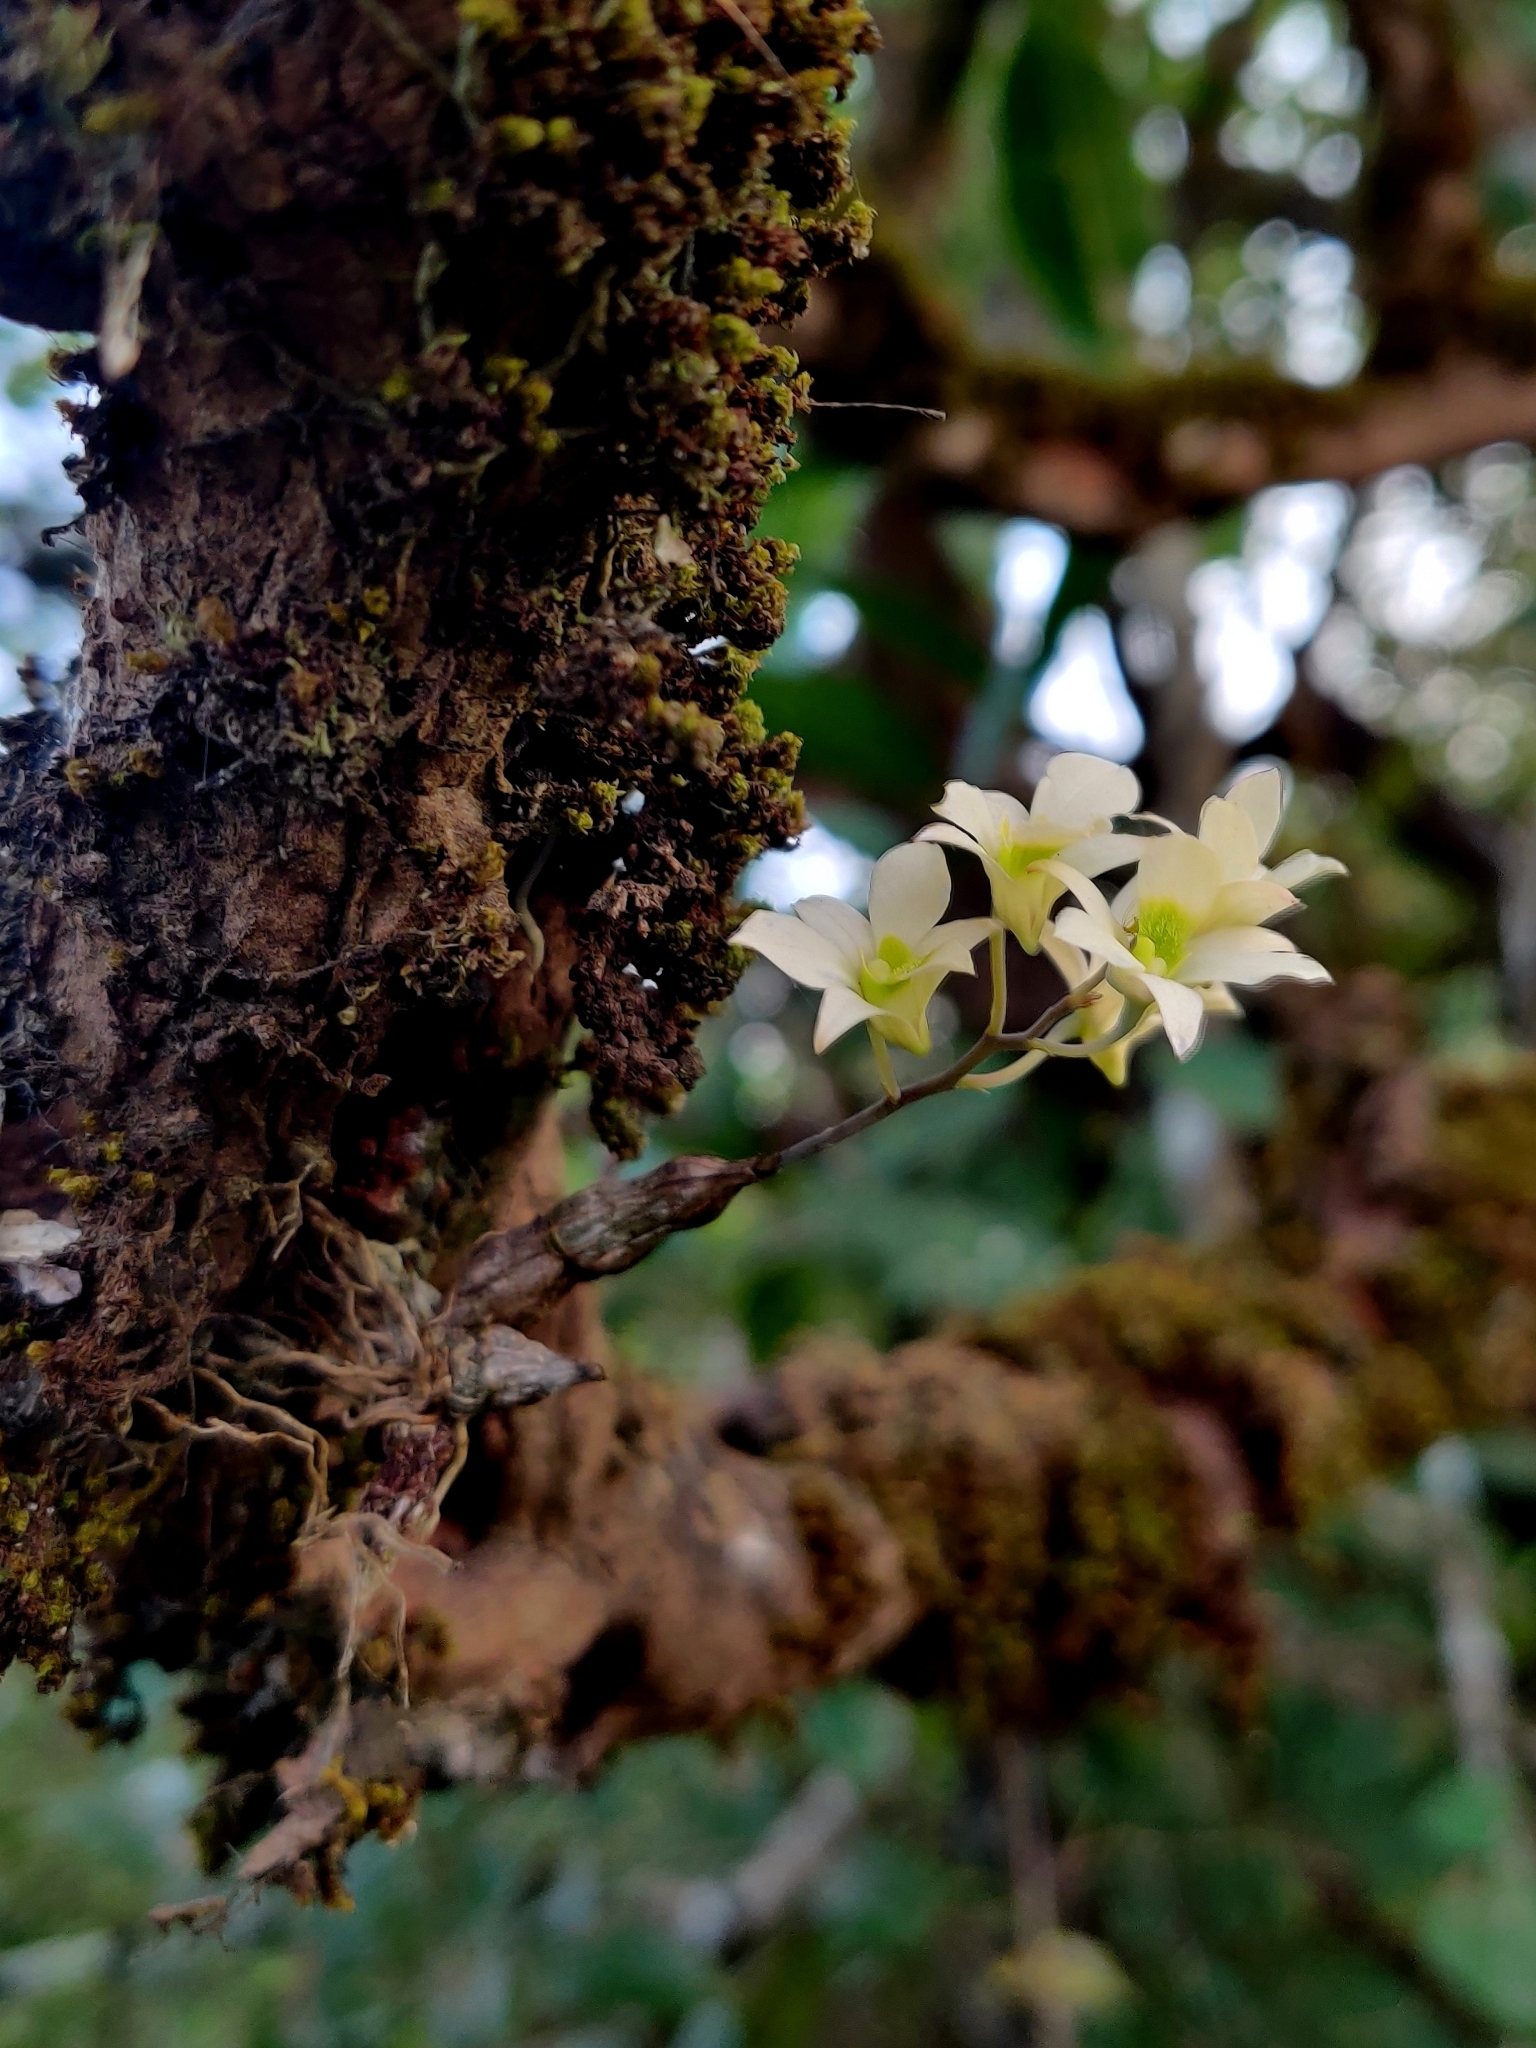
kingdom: Plantae
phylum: Tracheophyta
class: Liliopsida
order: Asparagales
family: Orchidaceae
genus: Dendrobium
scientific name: Dendrobium ovatum
